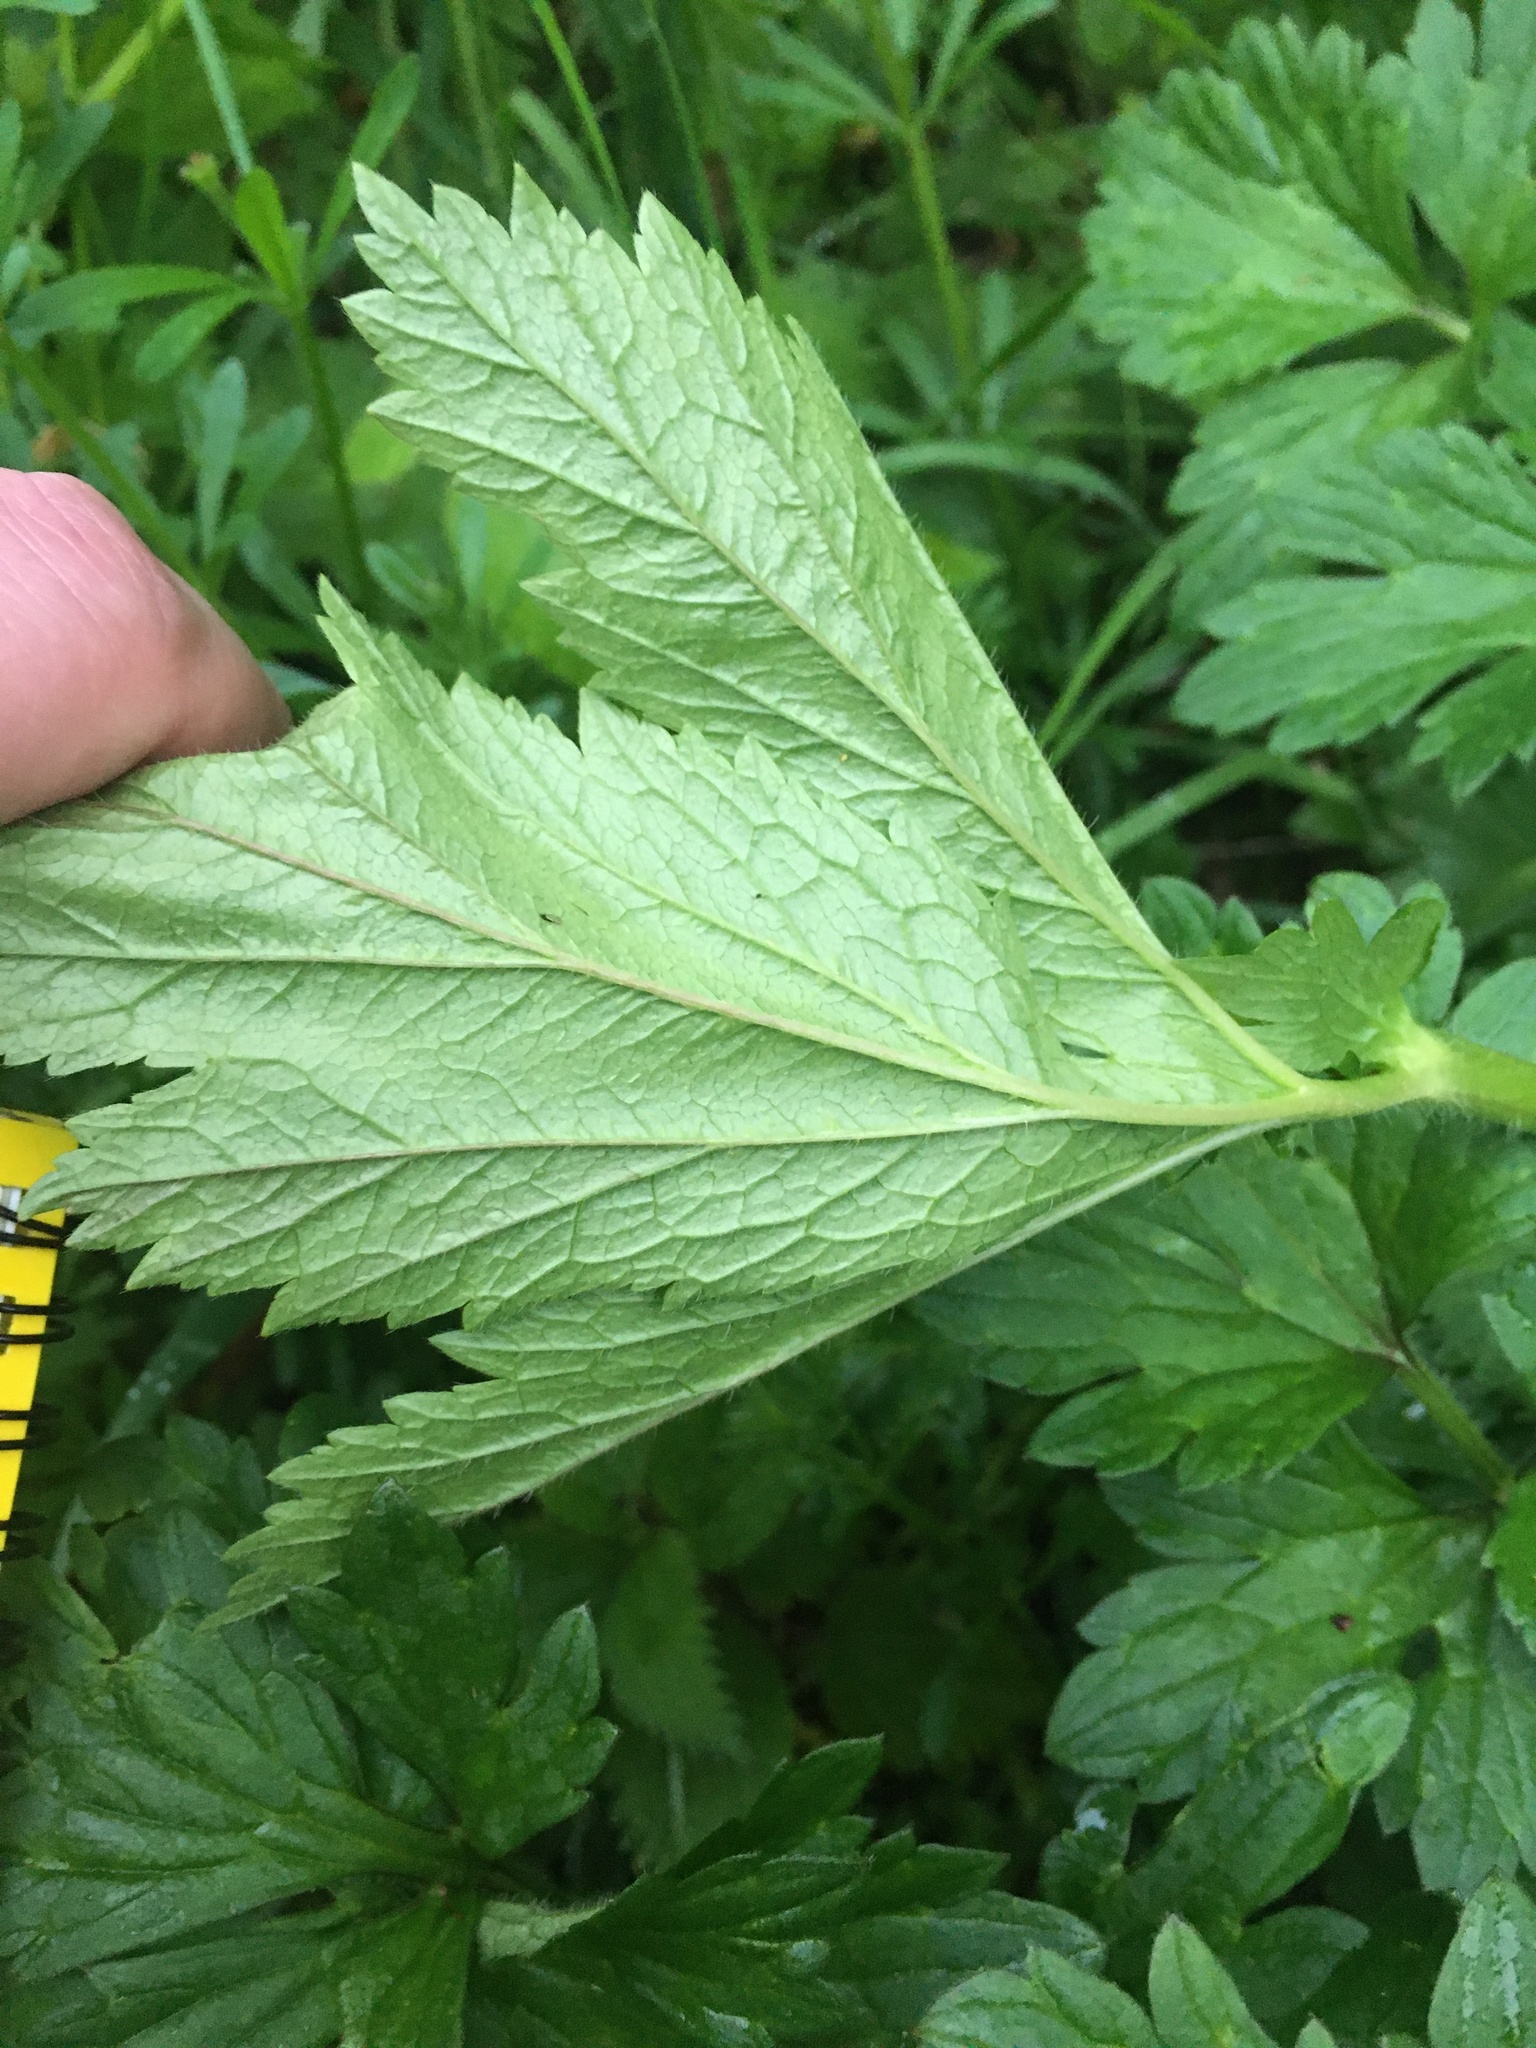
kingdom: Plantae
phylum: Tracheophyta
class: Magnoliopsida
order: Rosales
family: Rosaceae
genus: Geum
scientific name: Geum macrophyllum
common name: Large-leaved avens
